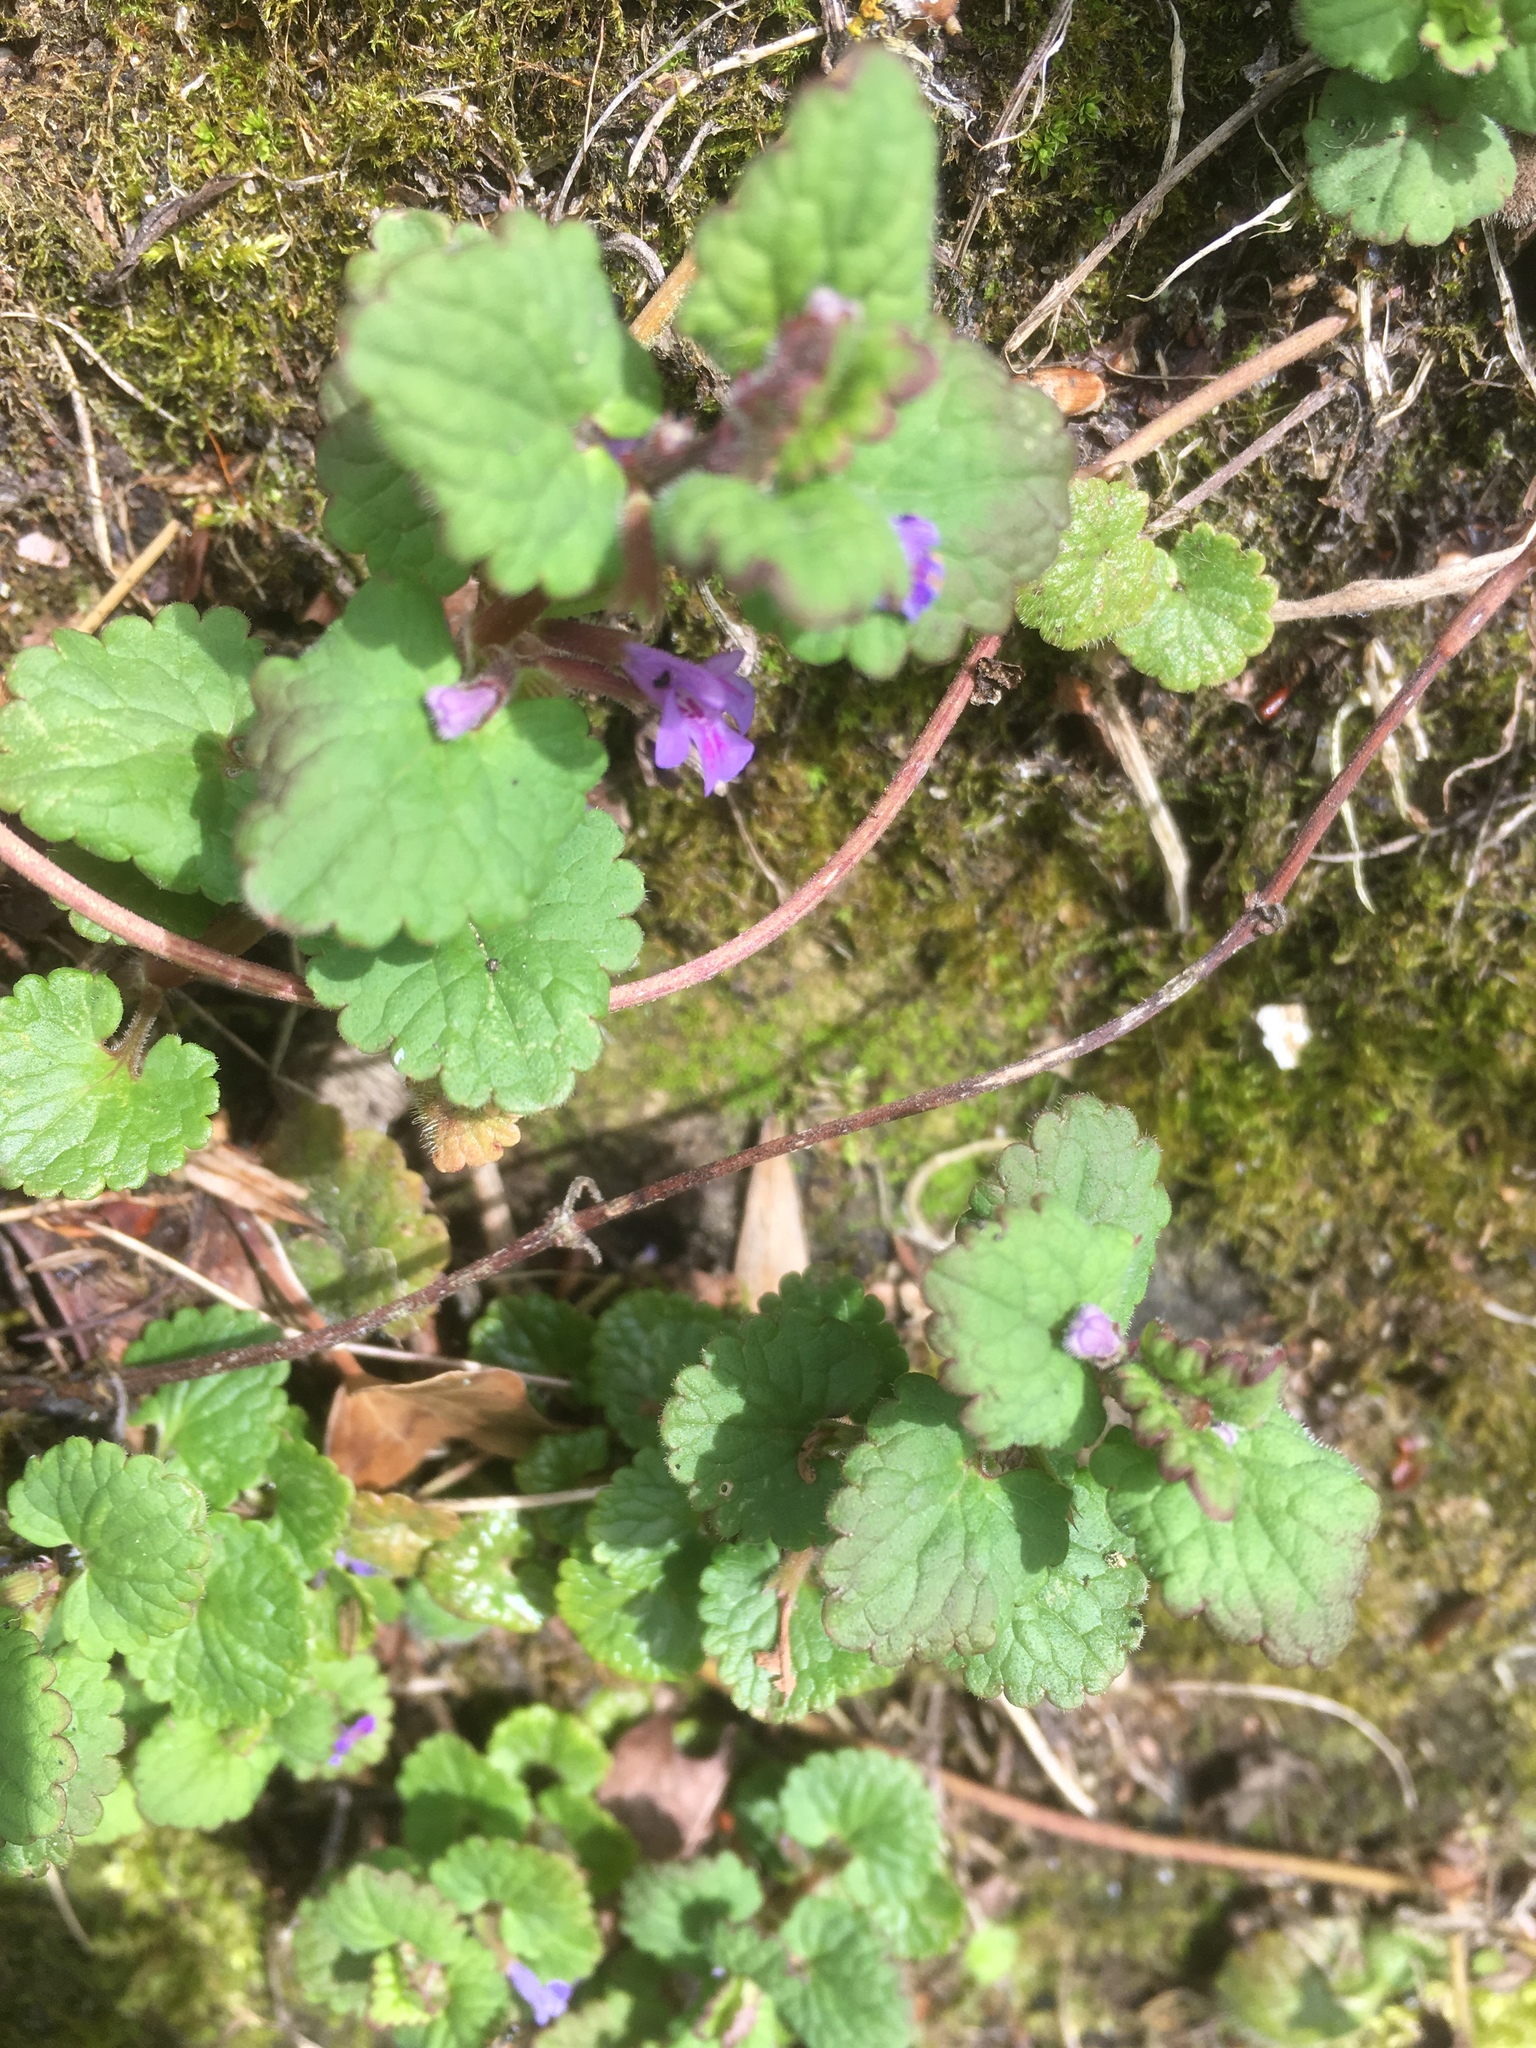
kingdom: Plantae
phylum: Tracheophyta
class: Magnoliopsida
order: Lamiales
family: Lamiaceae
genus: Glechoma
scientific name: Glechoma hederacea
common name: Ground ivy
